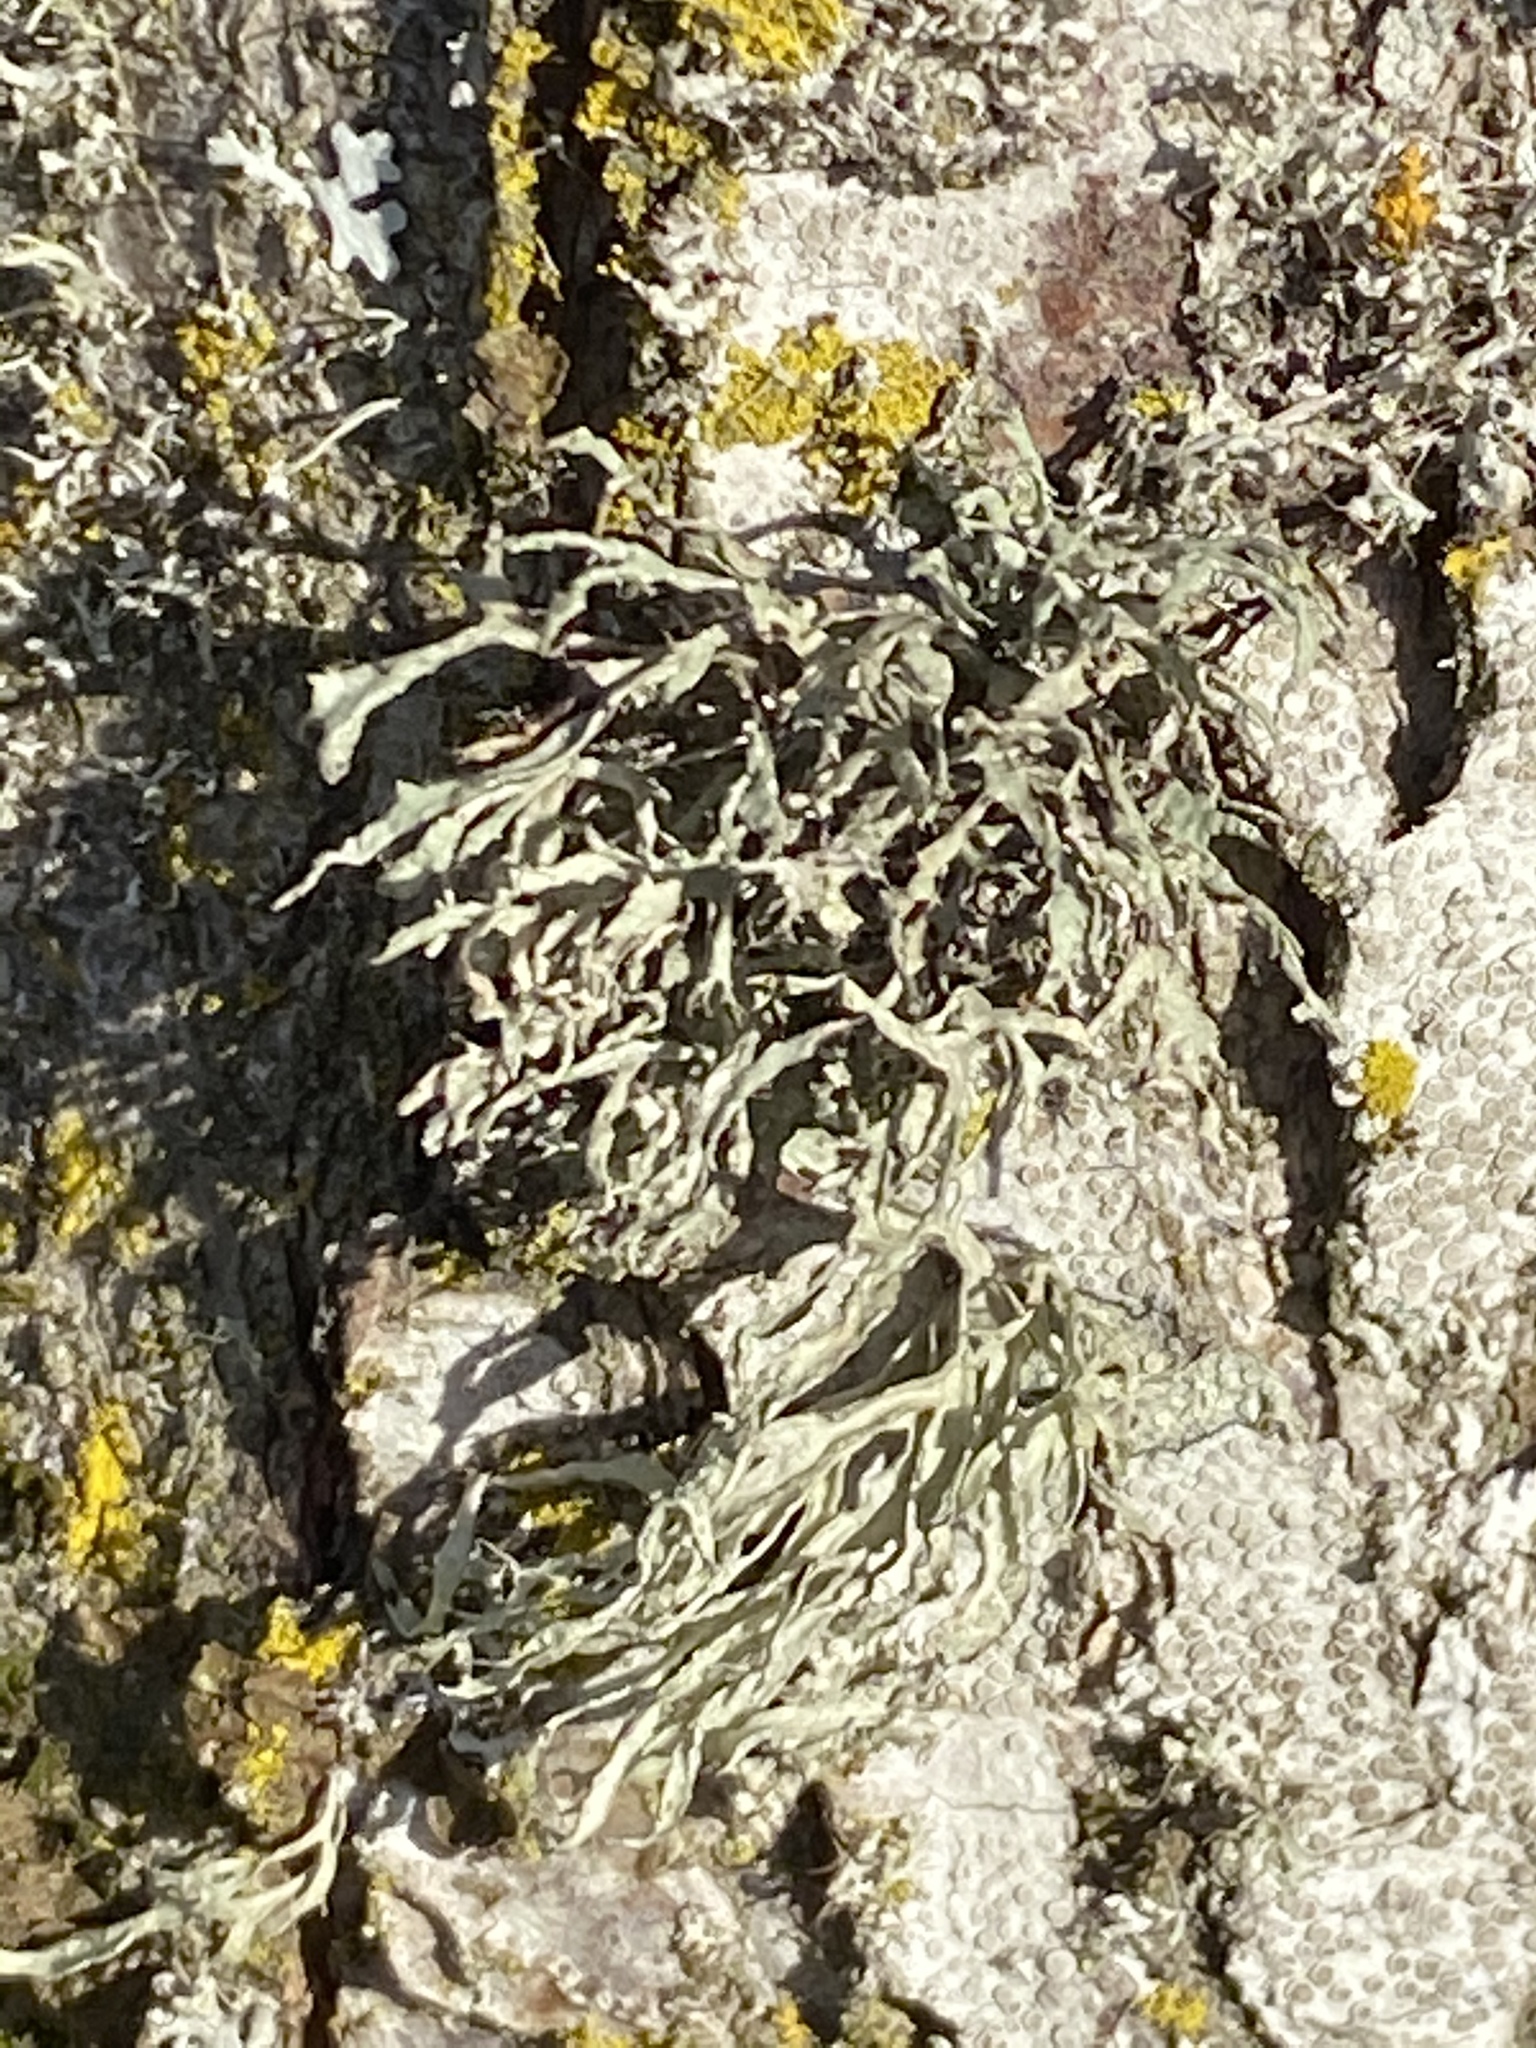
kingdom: Fungi
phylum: Ascomycota
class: Lecanoromycetes
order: Lecanorales
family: Parmeliaceae
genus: Evernia
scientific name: Evernia prunastri
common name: Oak moss
